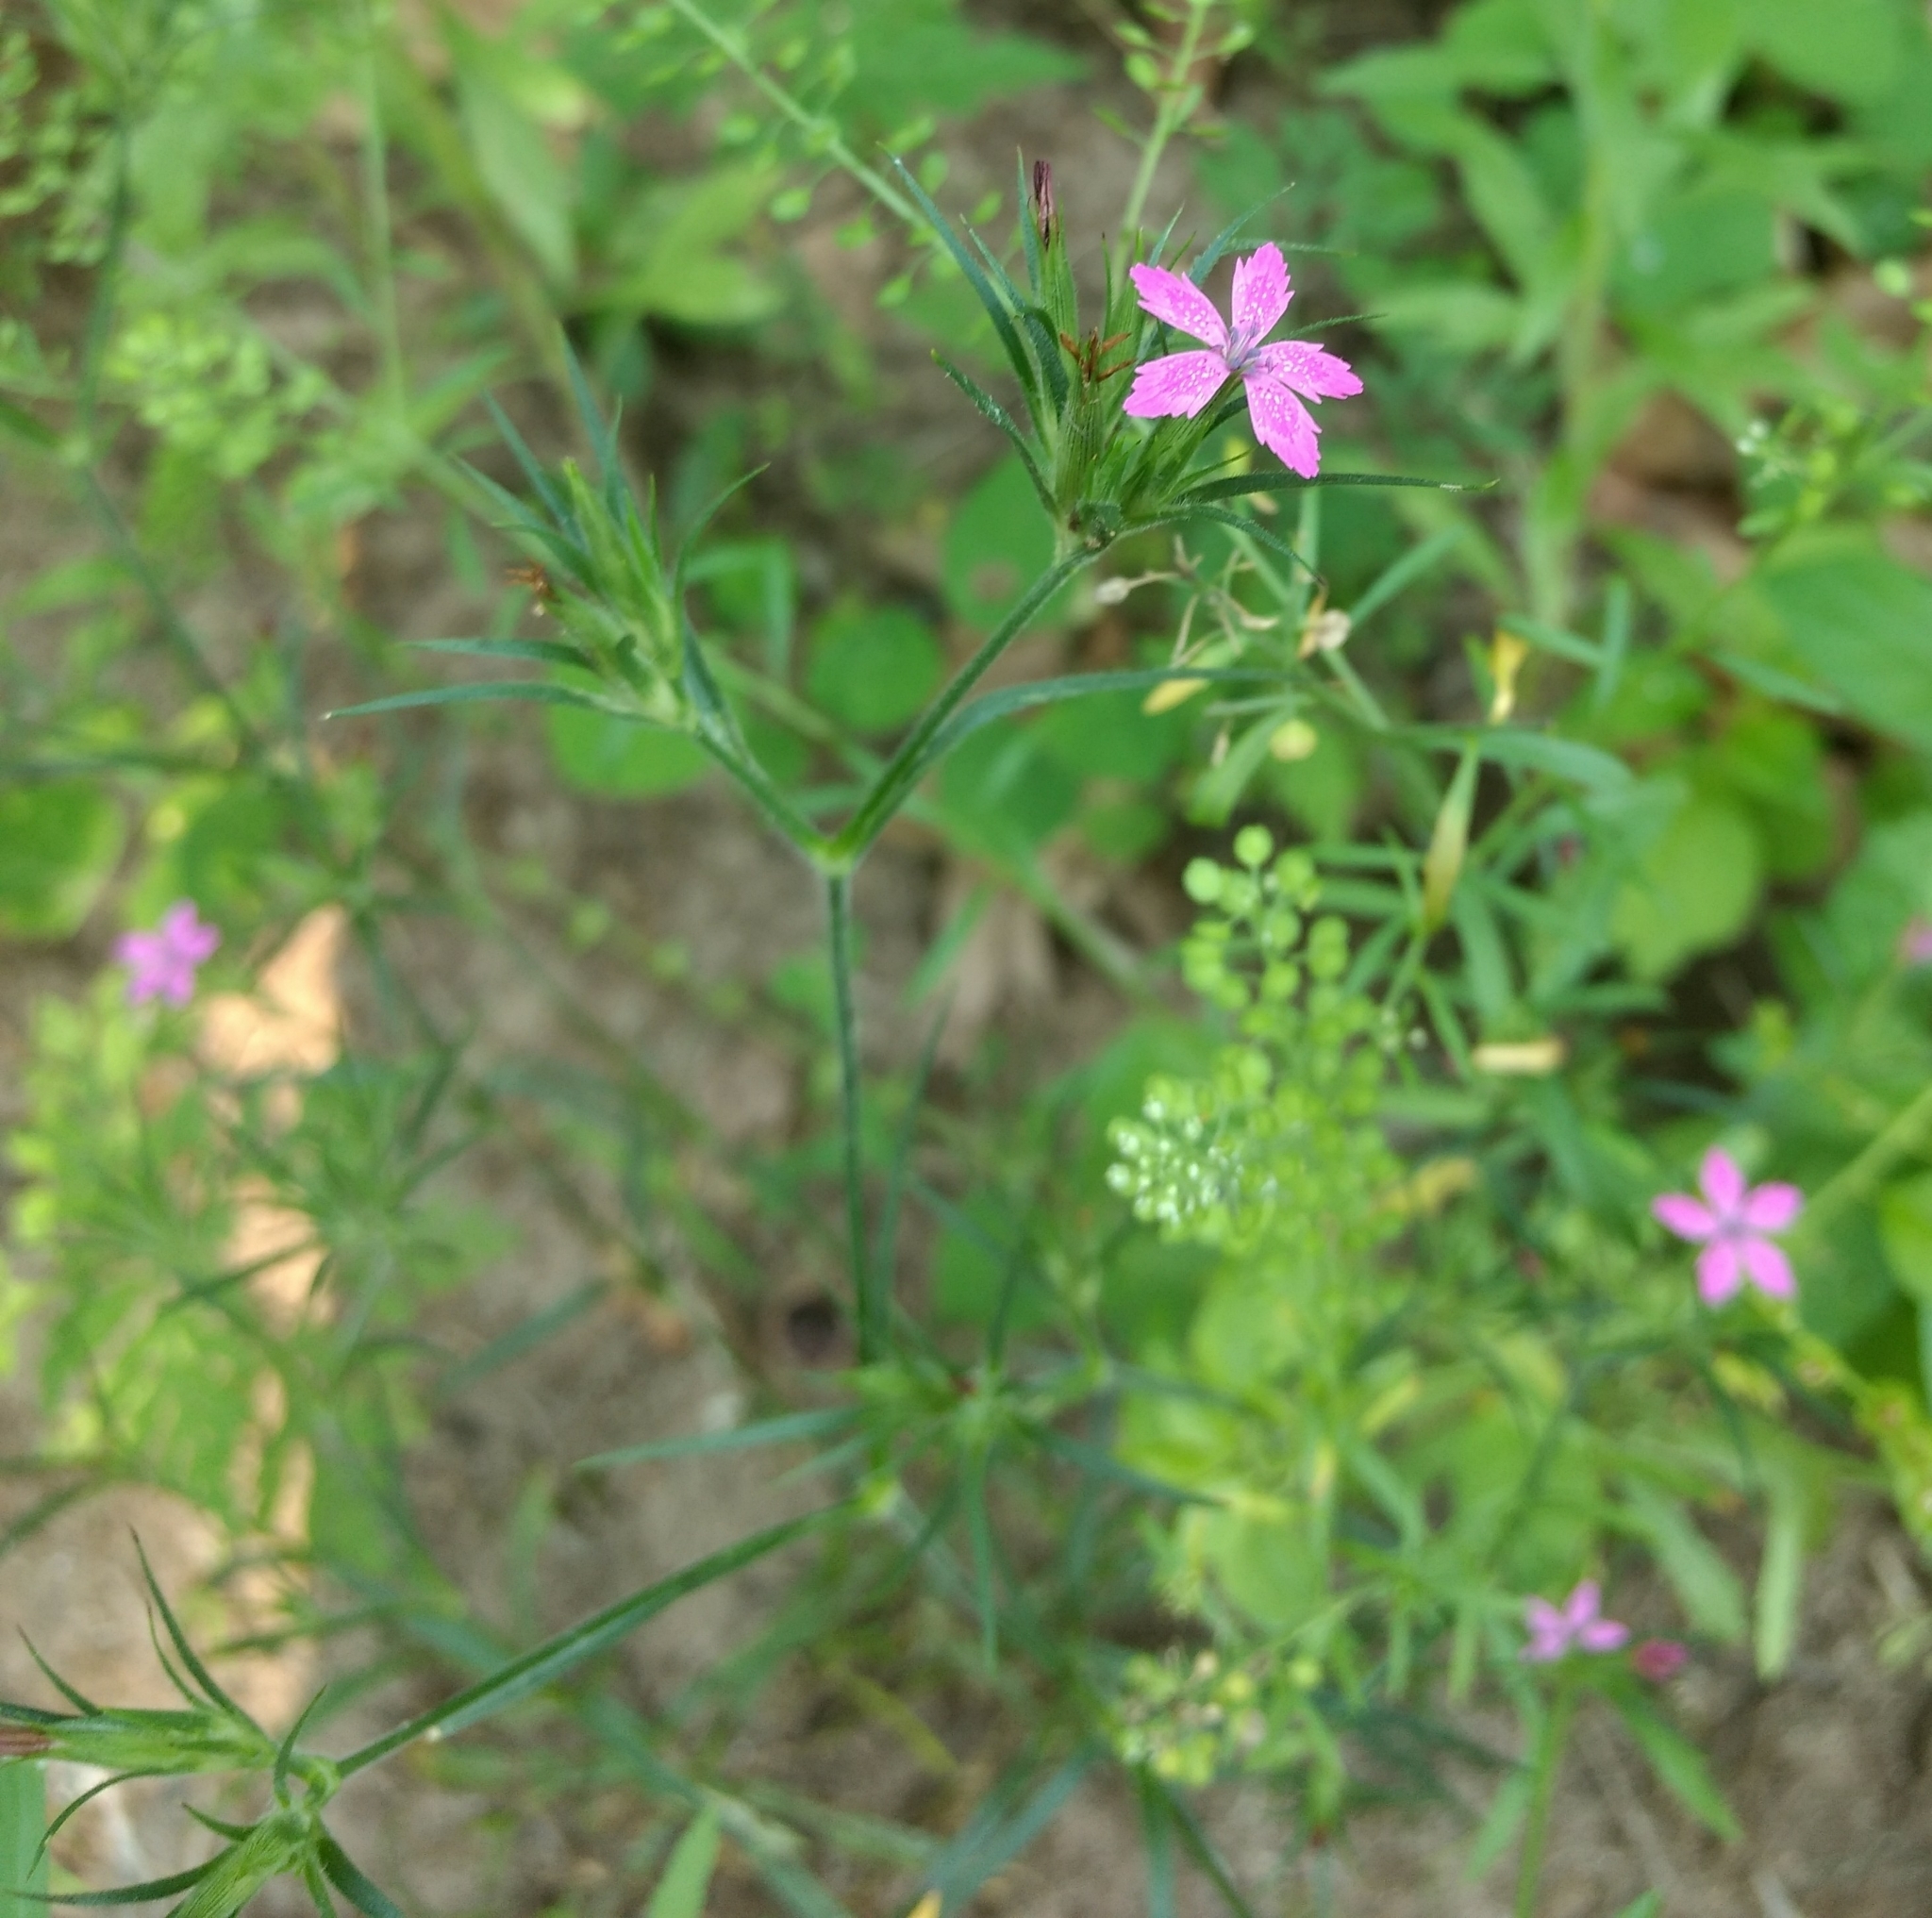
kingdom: Plantae
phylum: Tracheophyta
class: Magnoliopsida
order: Caryophyllales
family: Caryophyllaceae
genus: Dianthus
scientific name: Dianthus armeria
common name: Deptford pink
